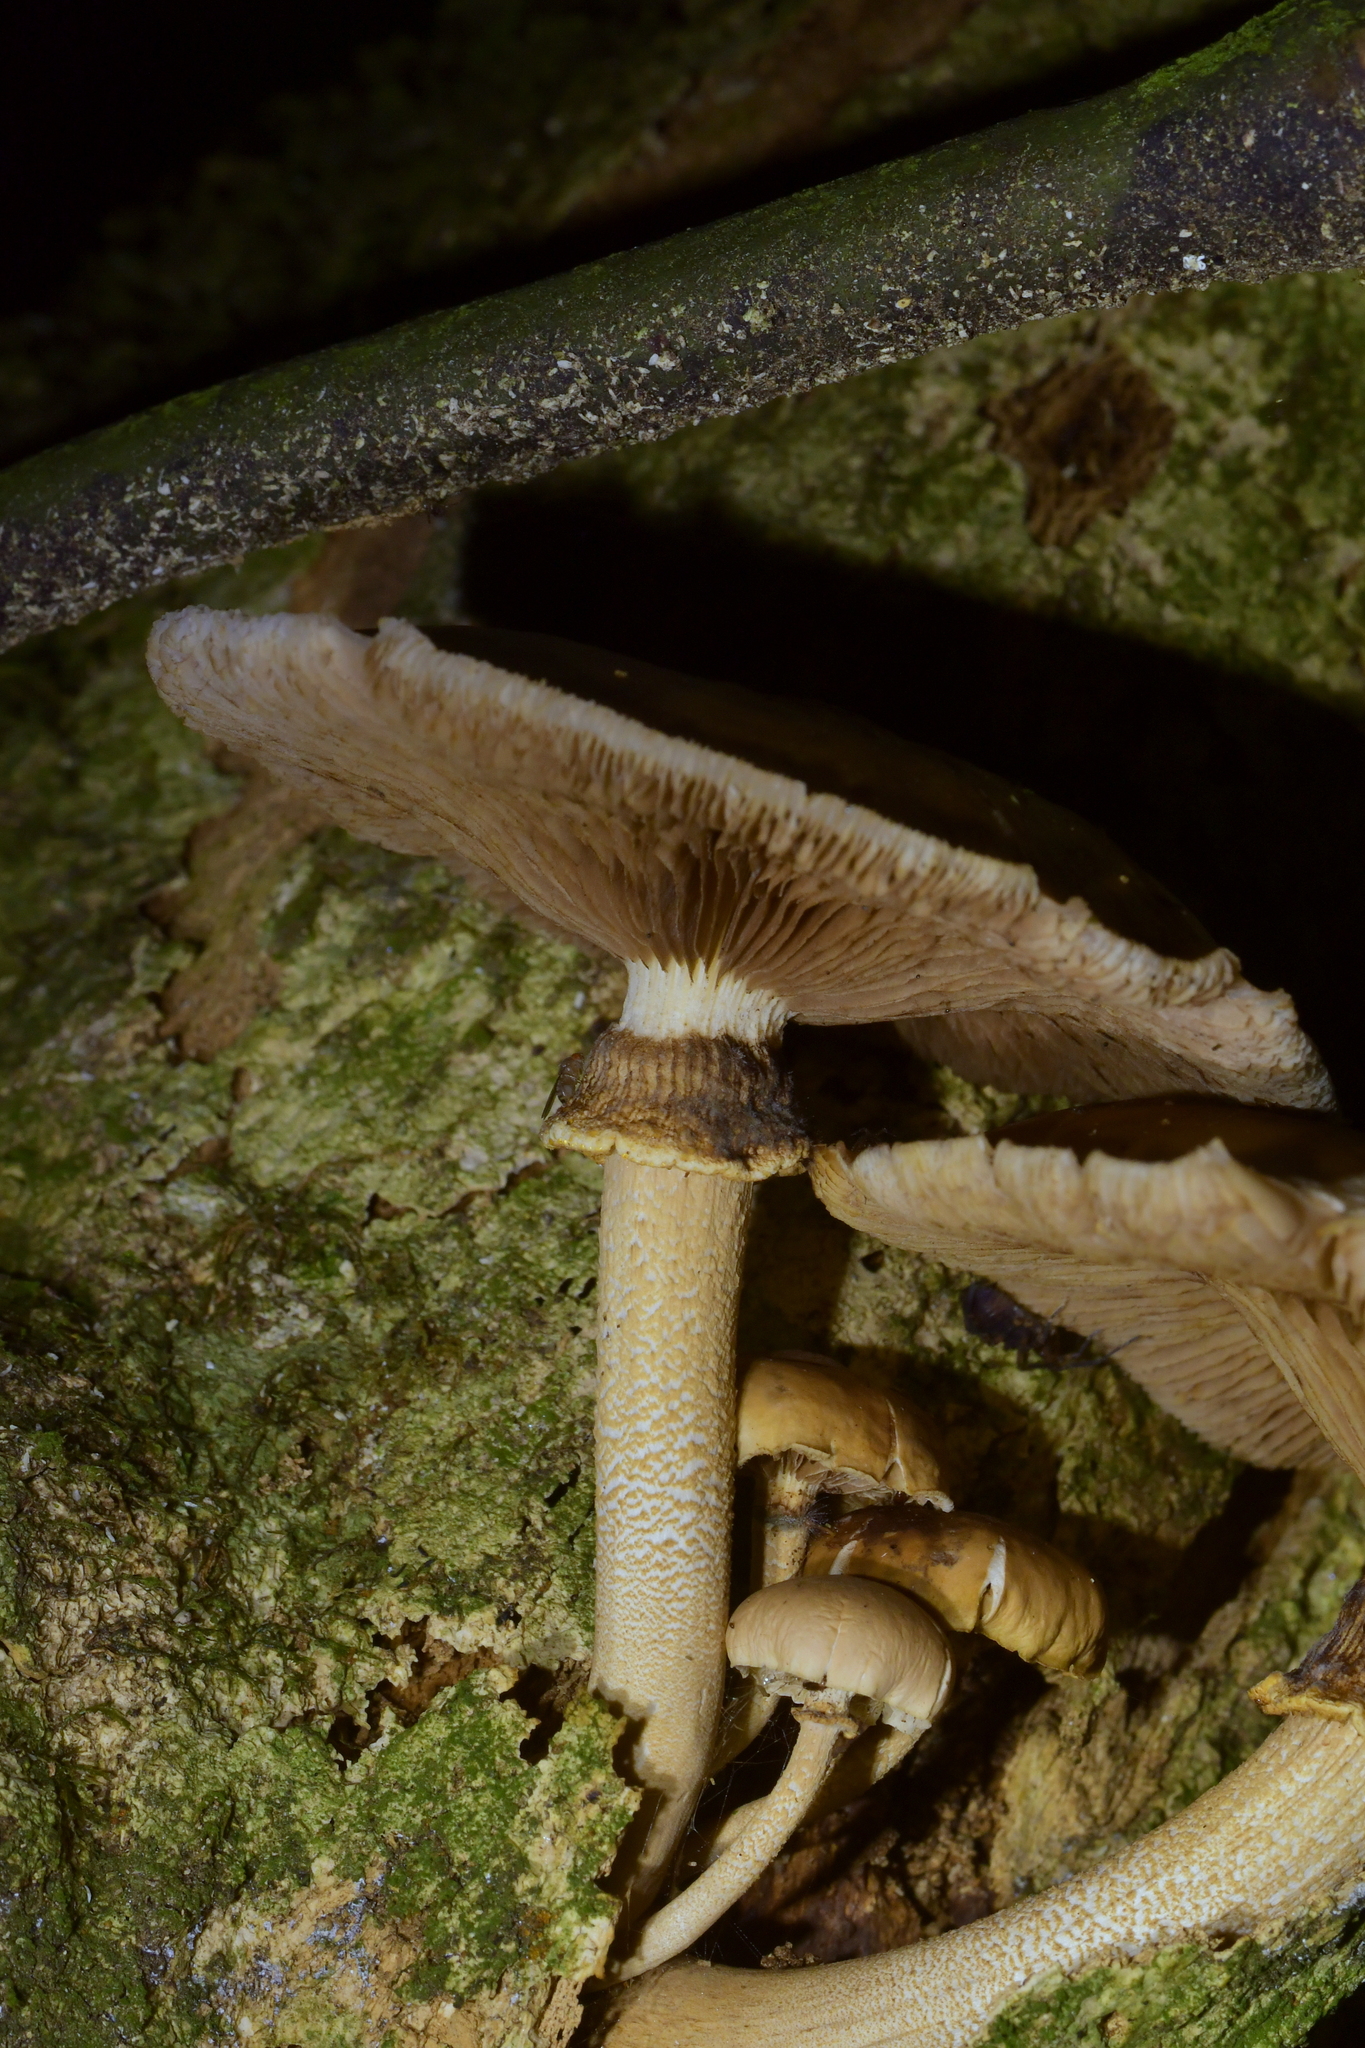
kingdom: Fungi
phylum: Basidiomycota
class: Agaricomycetes
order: Agaricales
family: Tubariaceae
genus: Cyclocybe
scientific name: Cyclocybe parasitica
